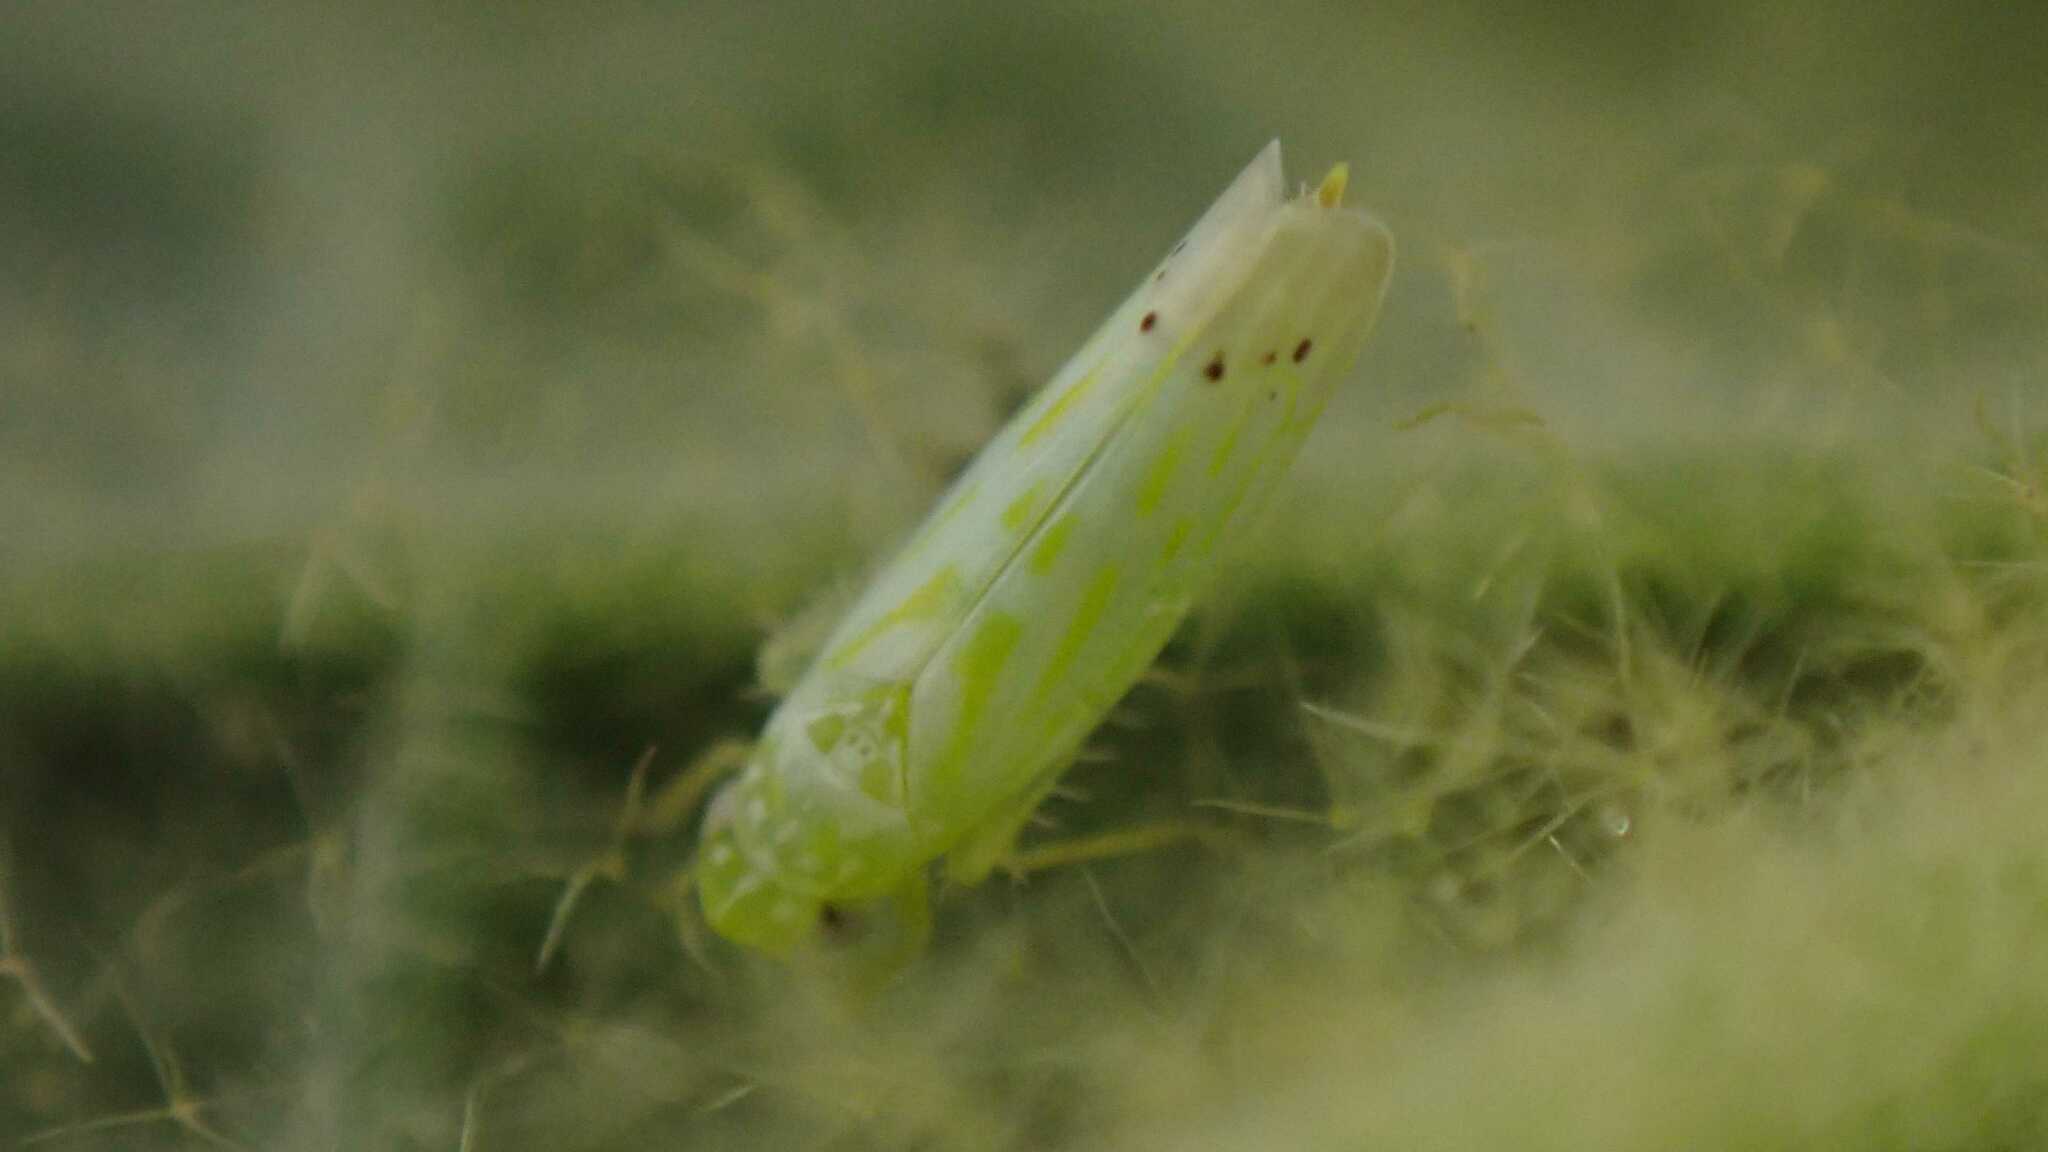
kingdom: Animalia
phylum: Arthropoda
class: Insecta
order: Hemiptera
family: Cicadellidae
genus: Micantulina
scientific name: Micantulina stigmatipennis
